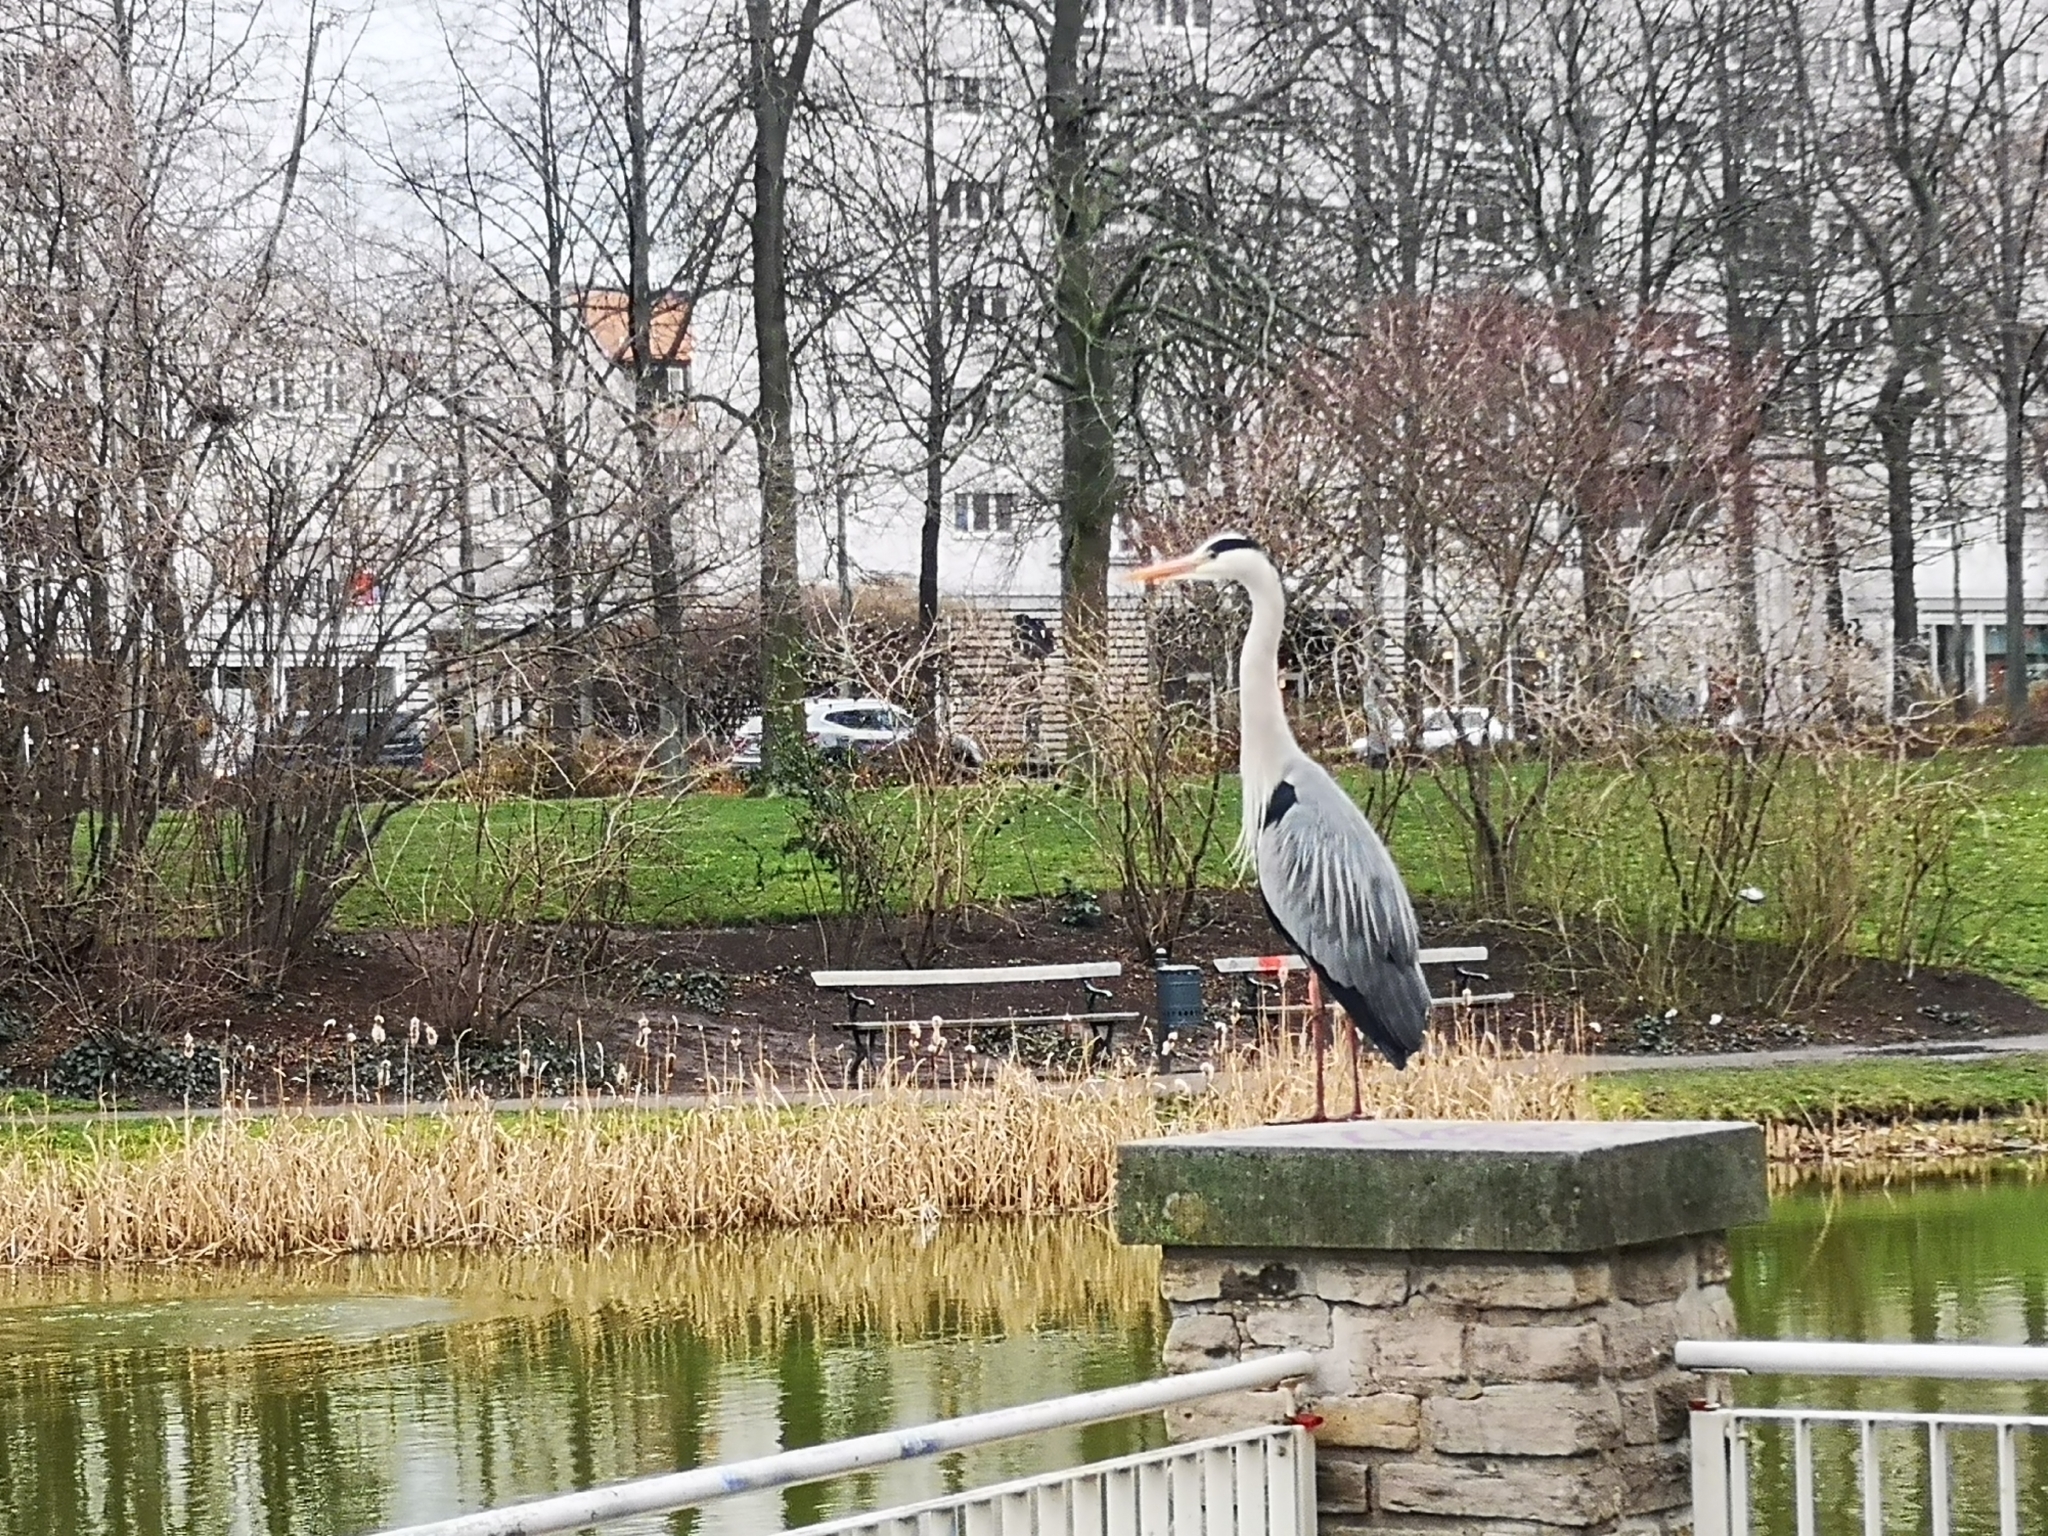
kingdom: Animalia
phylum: Chordata
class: Aves
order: Pelecaniformes
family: Ardeidae
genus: Ardea
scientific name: Ardea cinerea
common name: Grey heron
